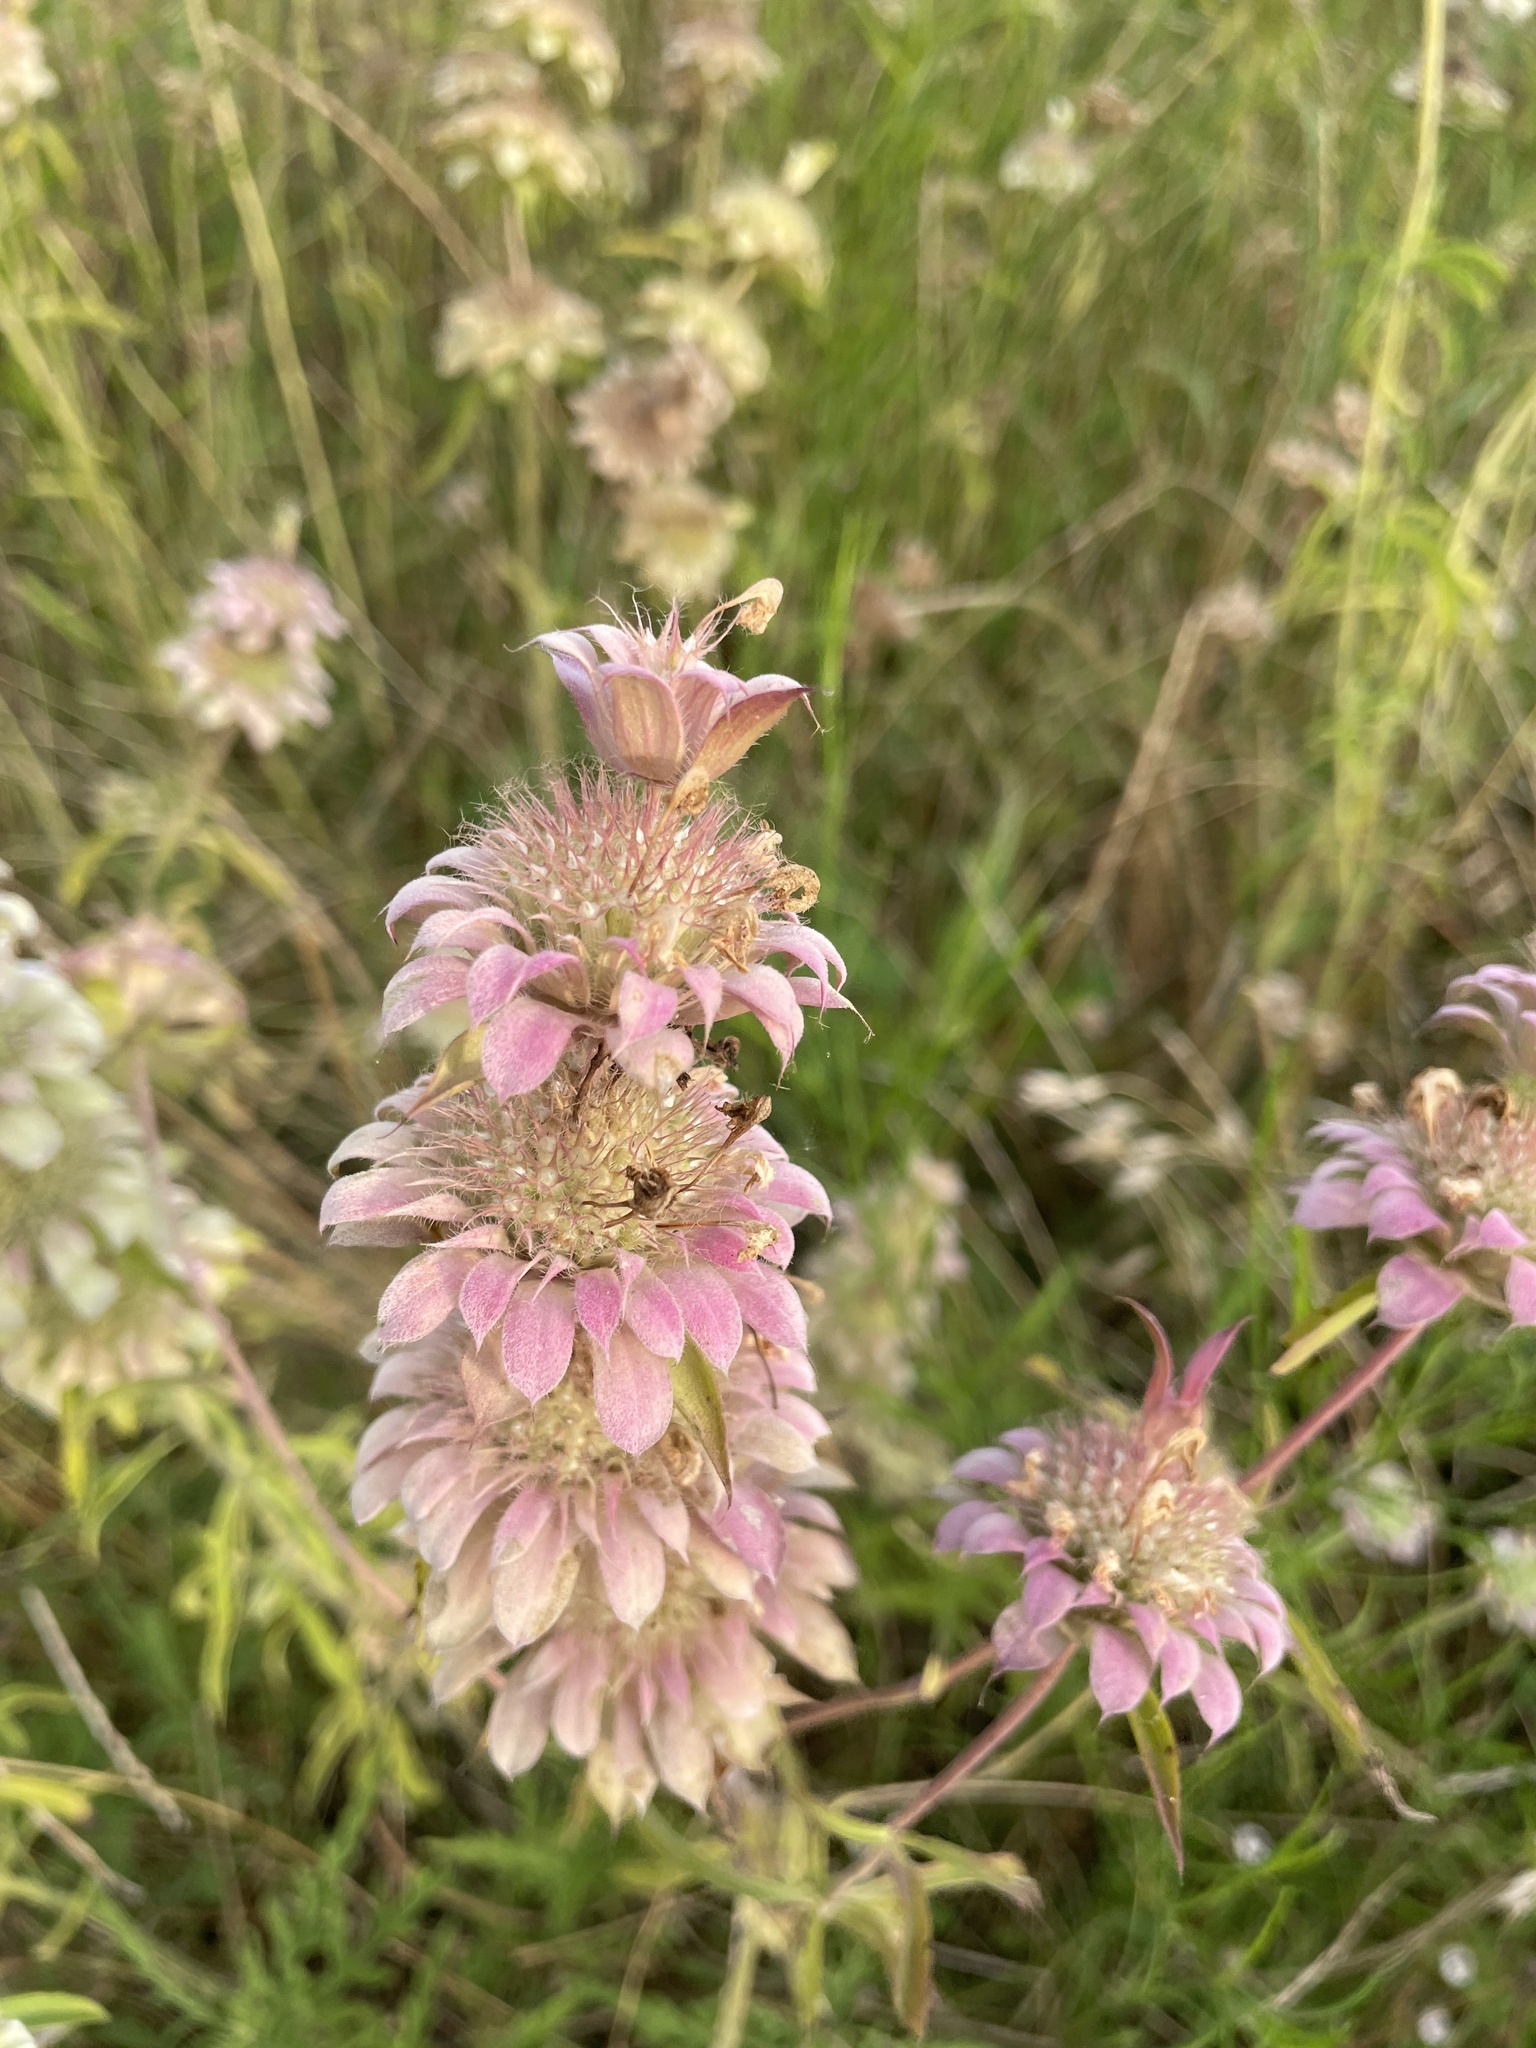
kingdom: Plantae
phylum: Tracheophyta
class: Magnoliopsida
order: Lamiales
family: Lamiaceae
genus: Monarda
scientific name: Monarda citriodora
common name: Lemon beebalm
